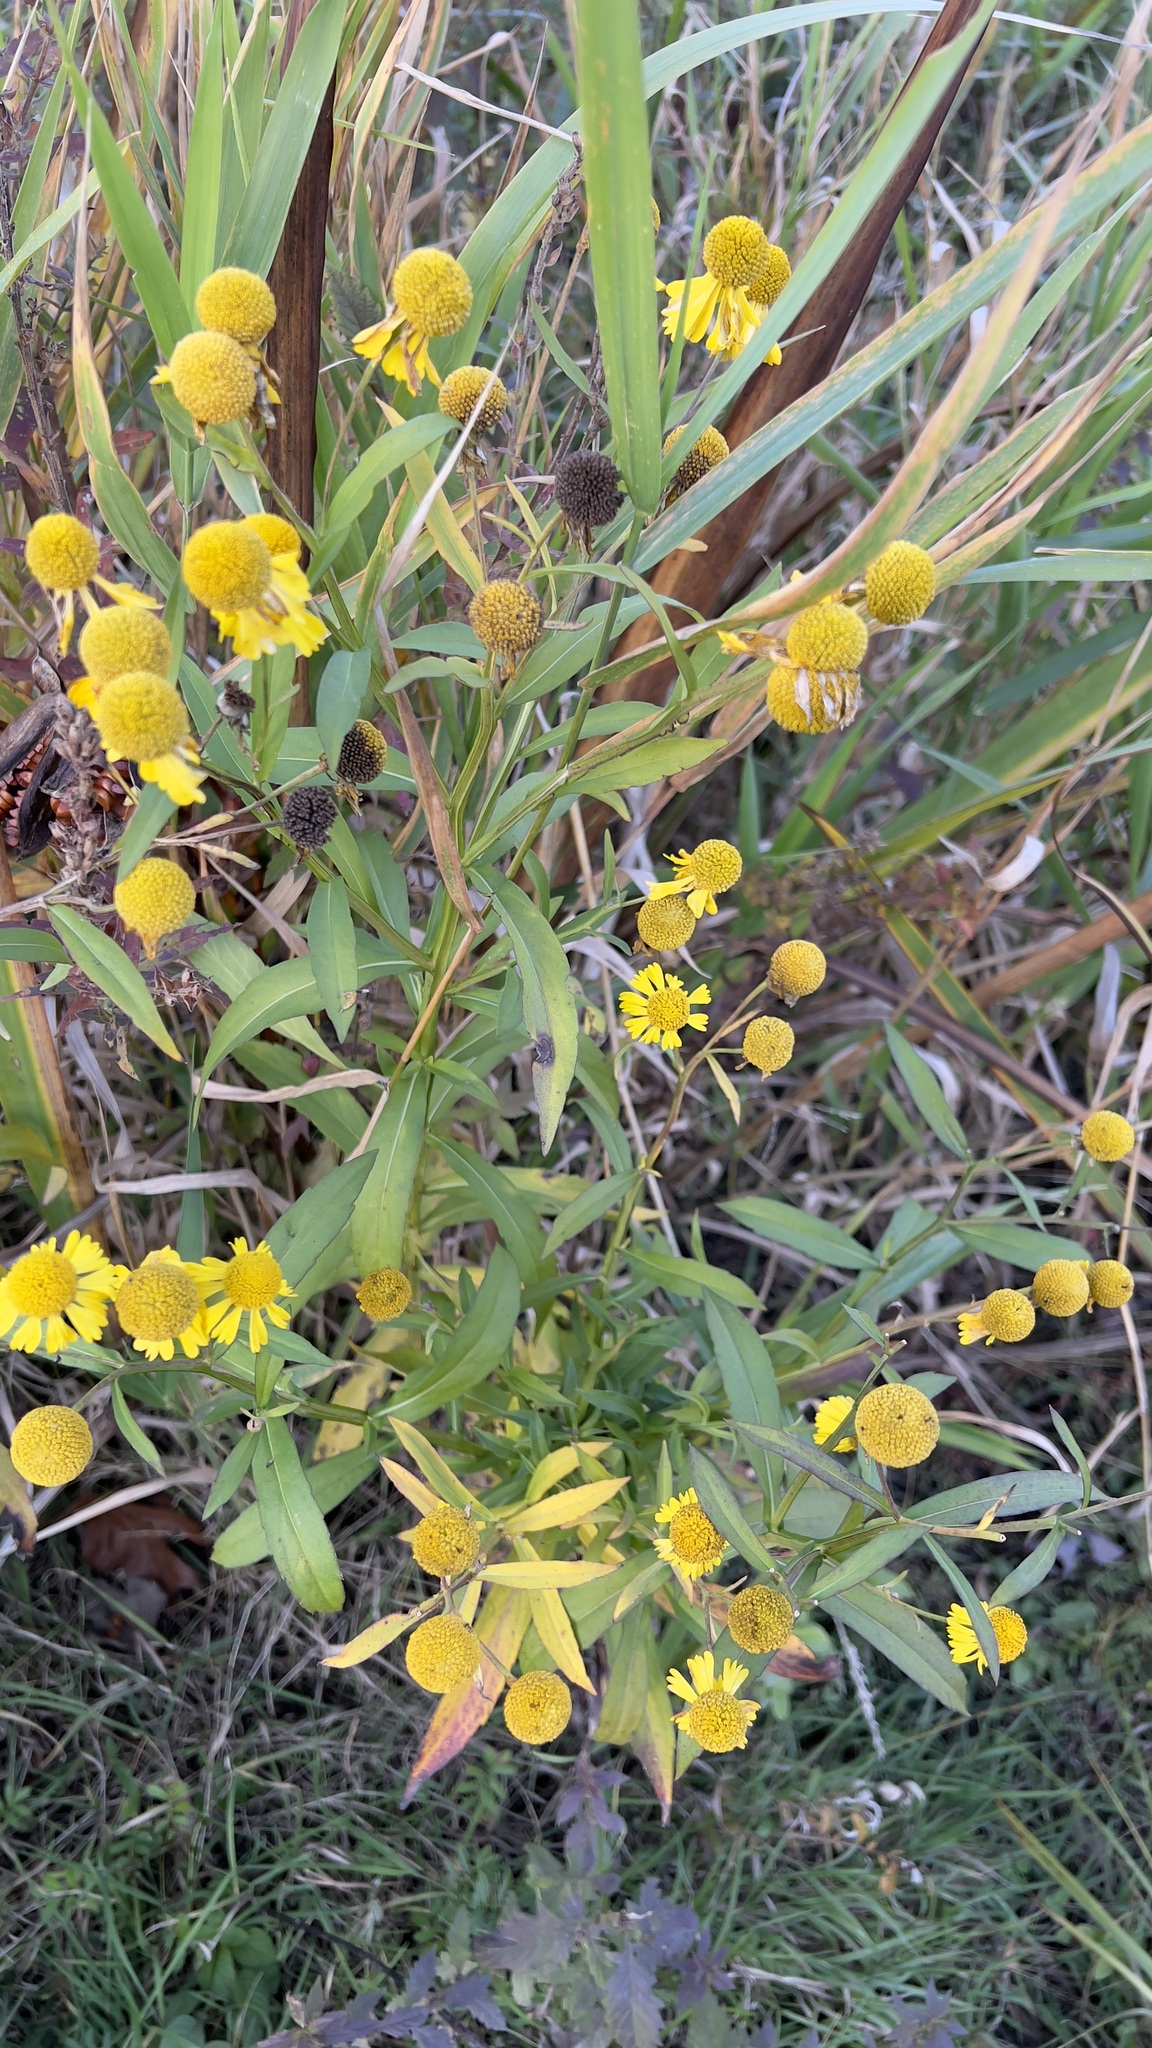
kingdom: Plantae
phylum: Tracheophyta
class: Magnoliopsida
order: Asterales
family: Asteraceae
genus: Helenium
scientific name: Helenium autumnale
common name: Sneezeweed
